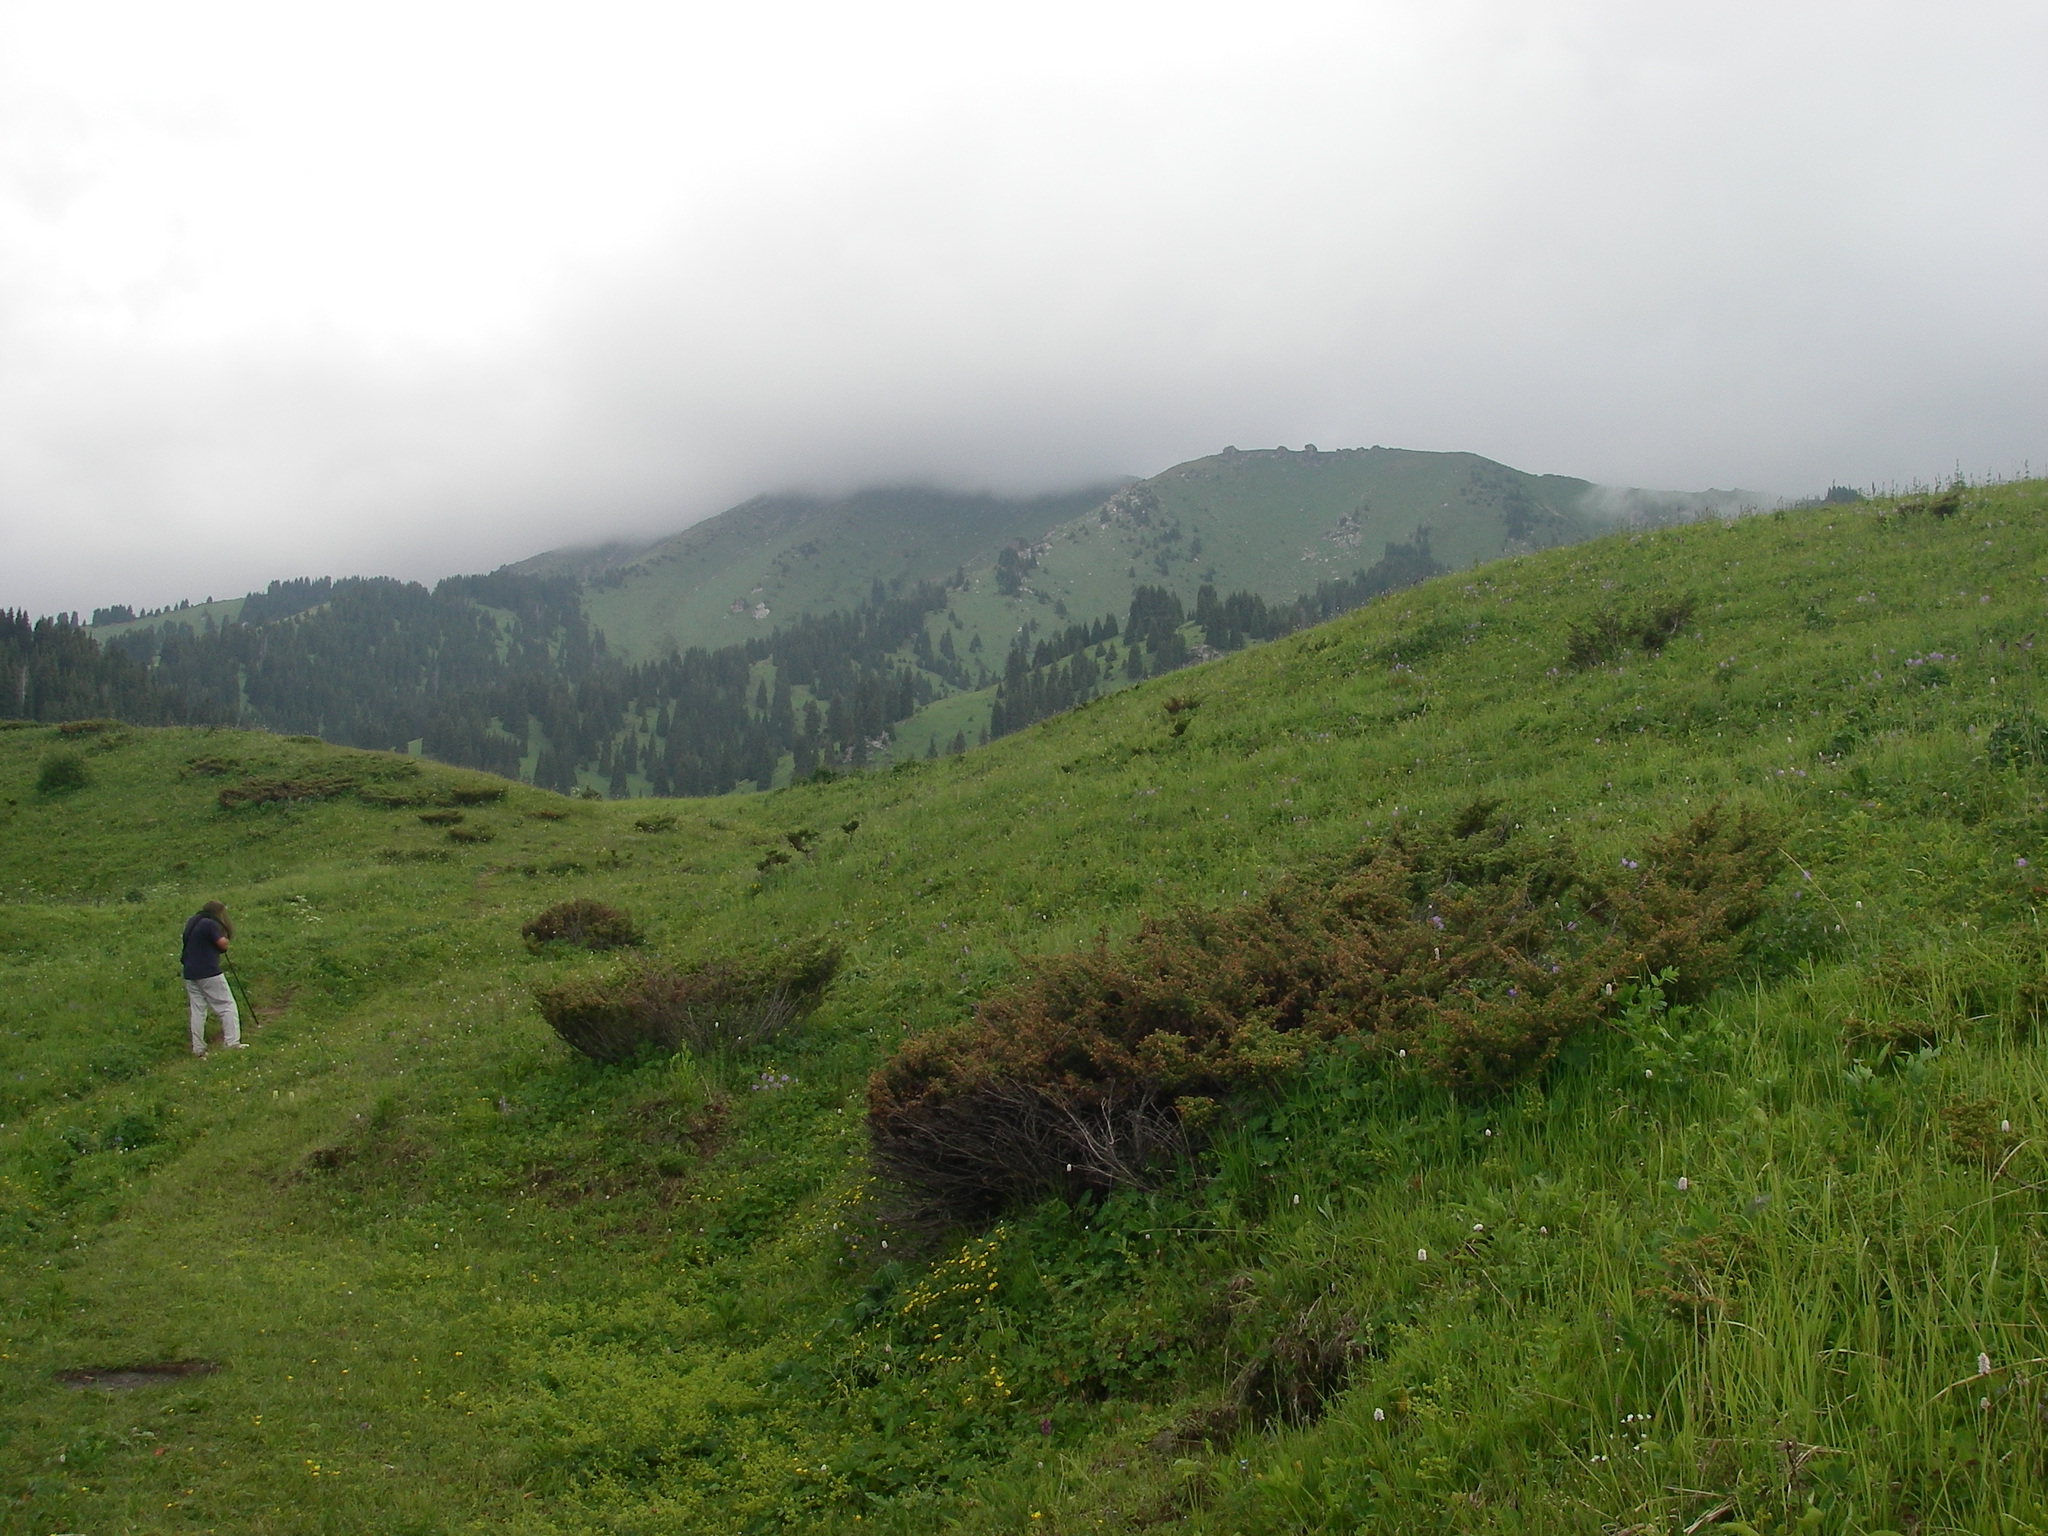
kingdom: Plantae
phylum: Tracheophyta
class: Pinopsida
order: Pinales
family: Cupressaceae
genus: Juniperus
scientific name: Juniperus communis
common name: Common juniper
